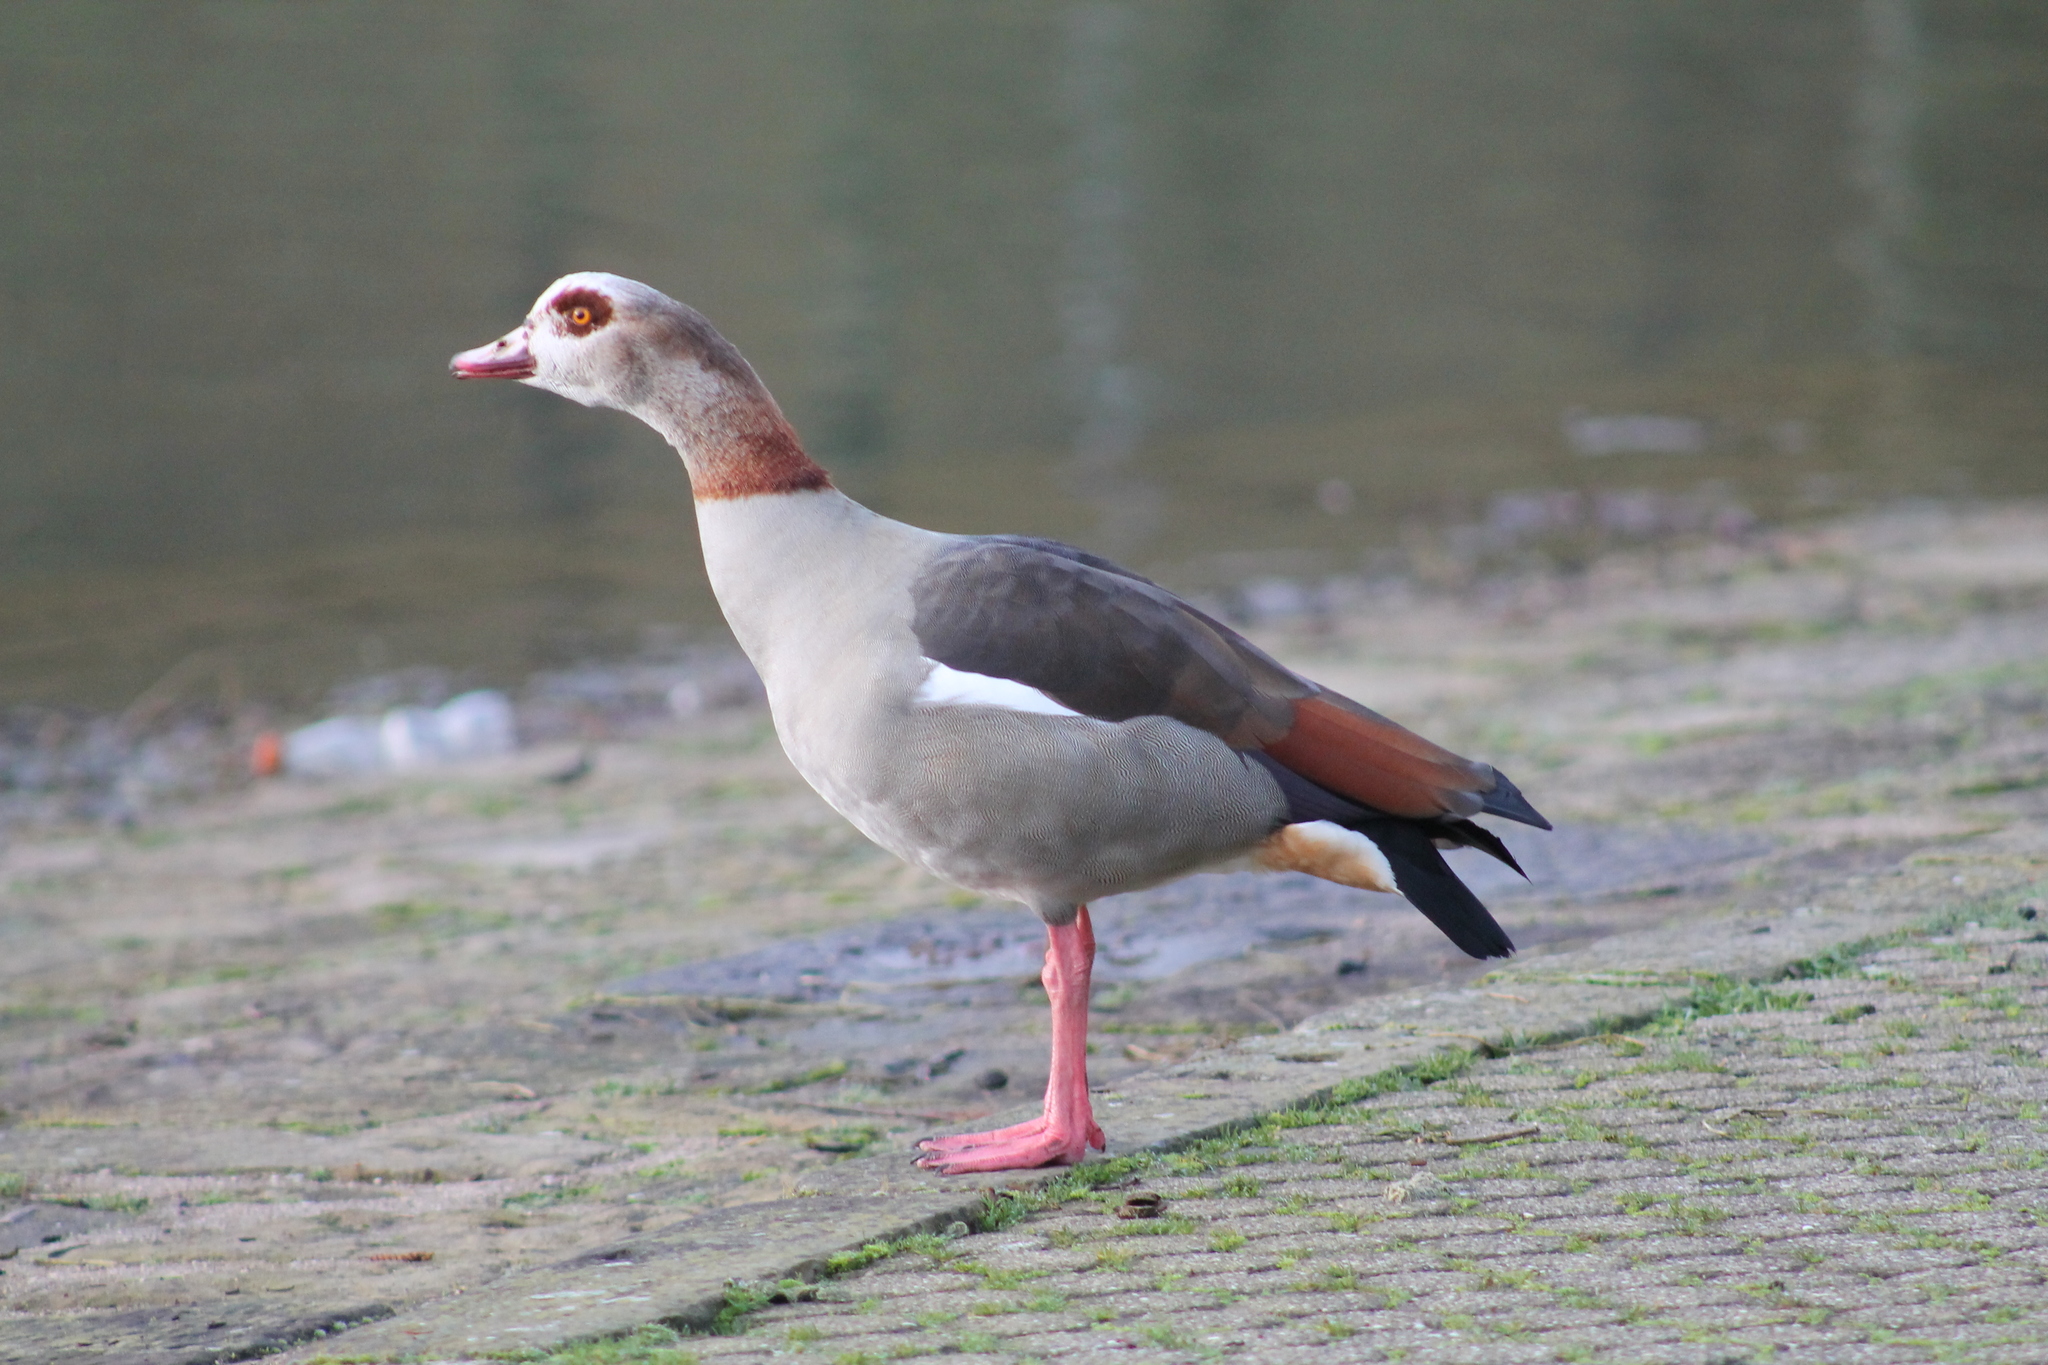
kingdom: Animalia
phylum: Chordata
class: Aves
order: Anseriformes
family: Anatidae
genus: Alopochen
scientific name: Alopochen aegyptiaca
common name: Egyptian goose
